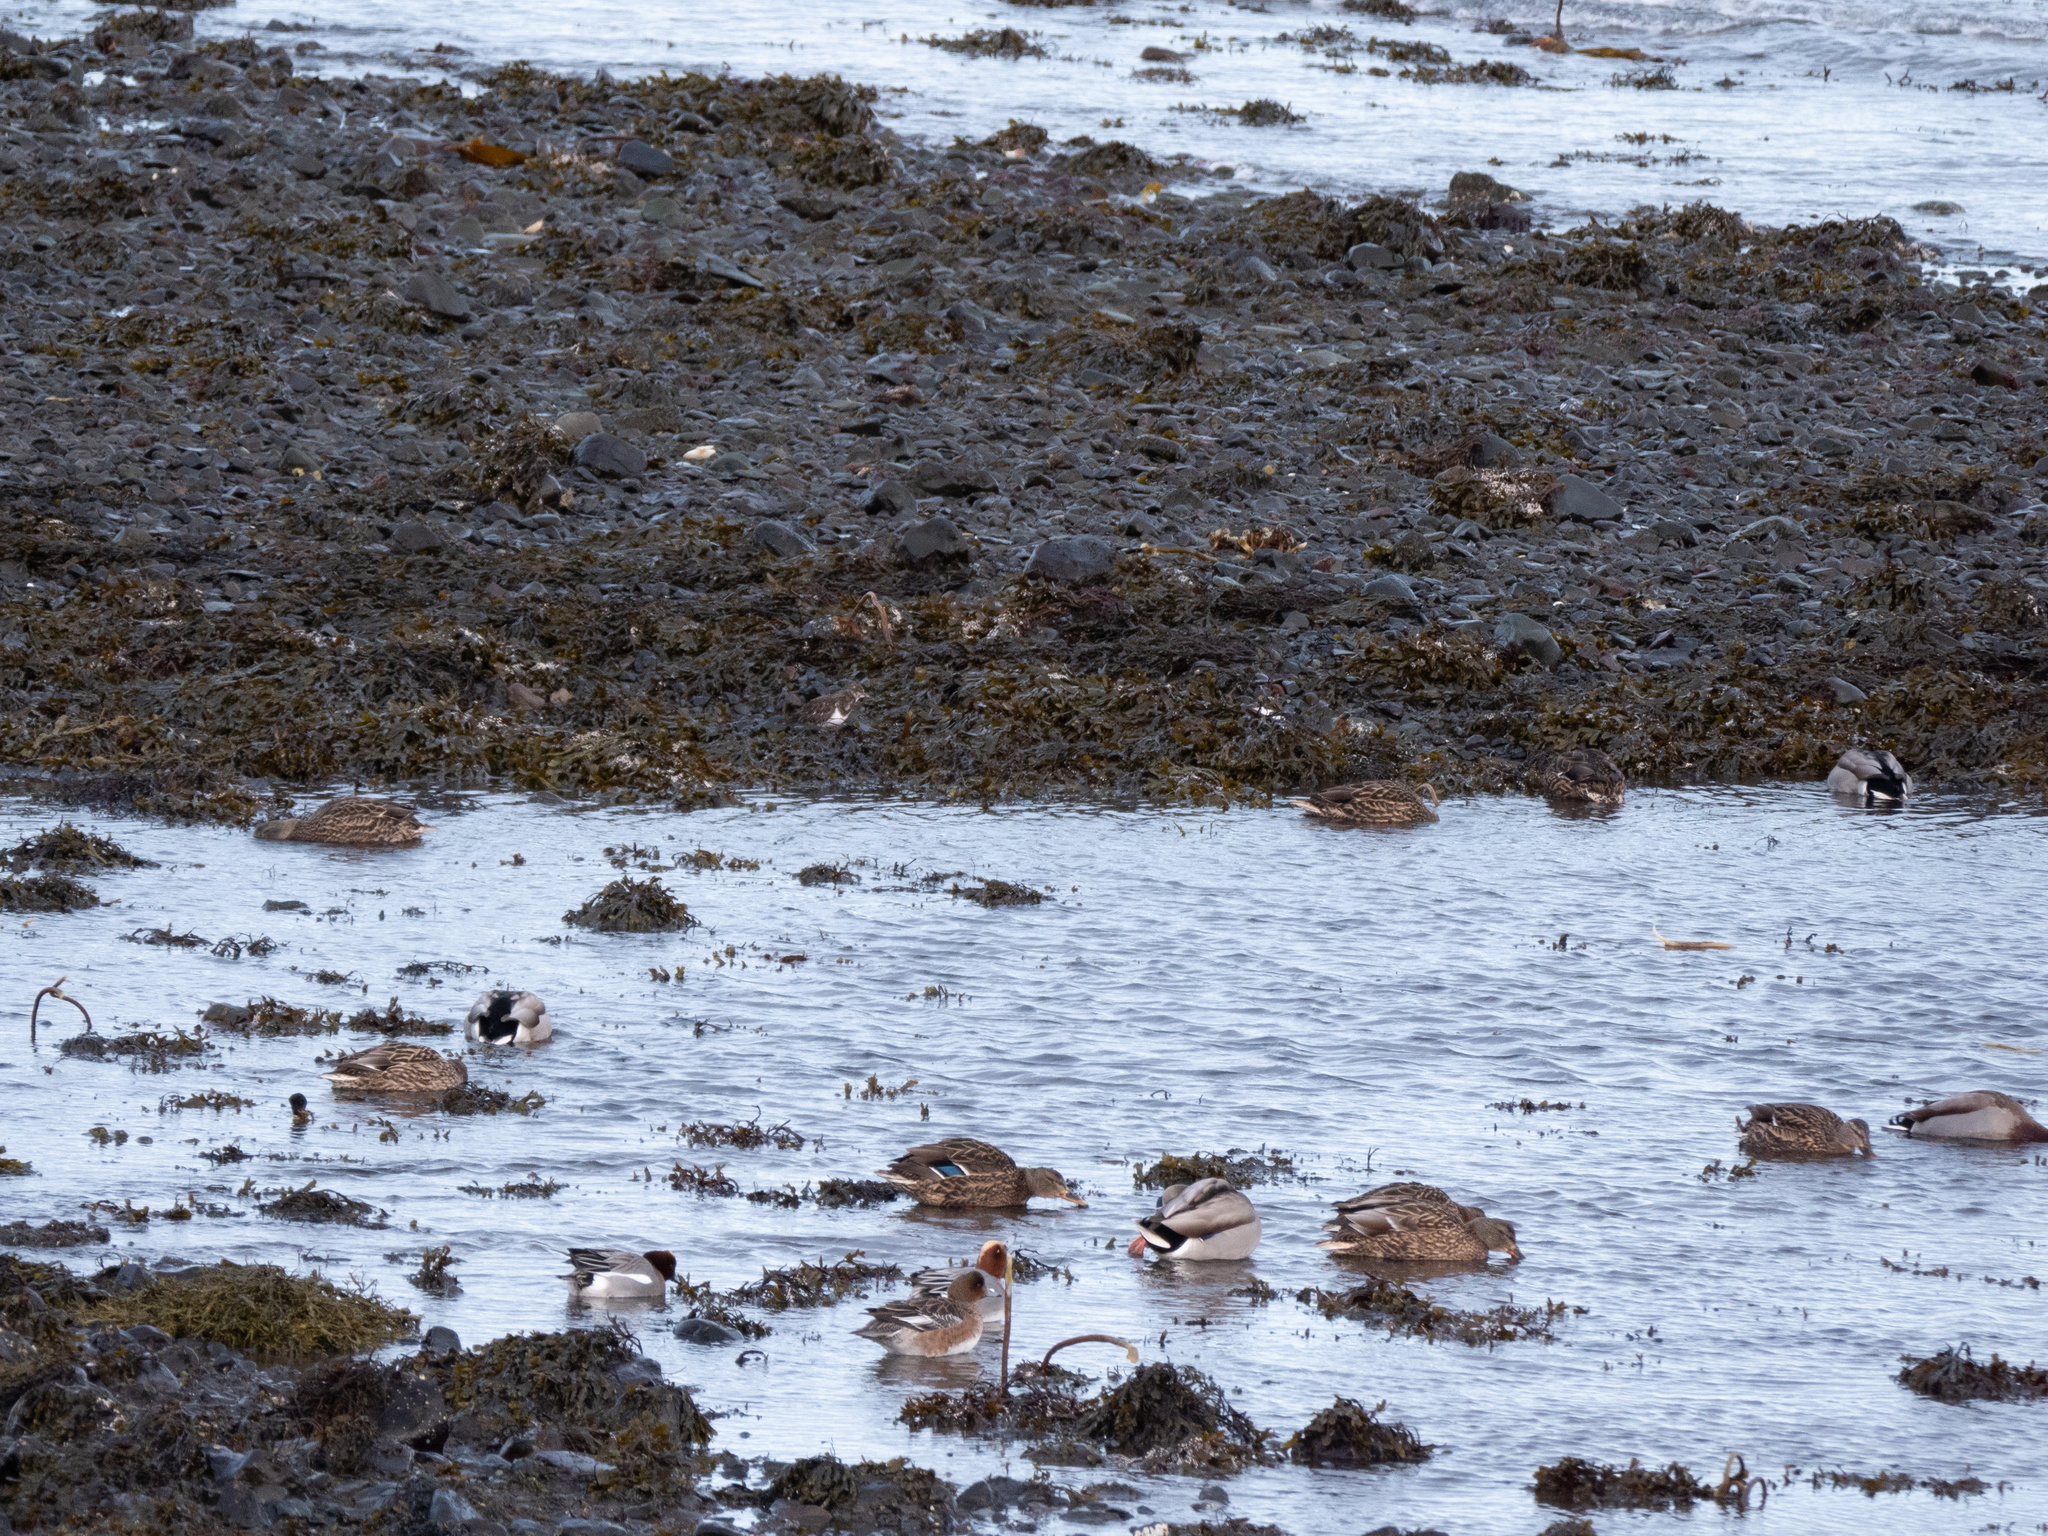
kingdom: Animalia
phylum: Chordata
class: Aves
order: Anseriformes
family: Anatidae
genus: Mareca
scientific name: Mareca penelope
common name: Eurasian wigeon
